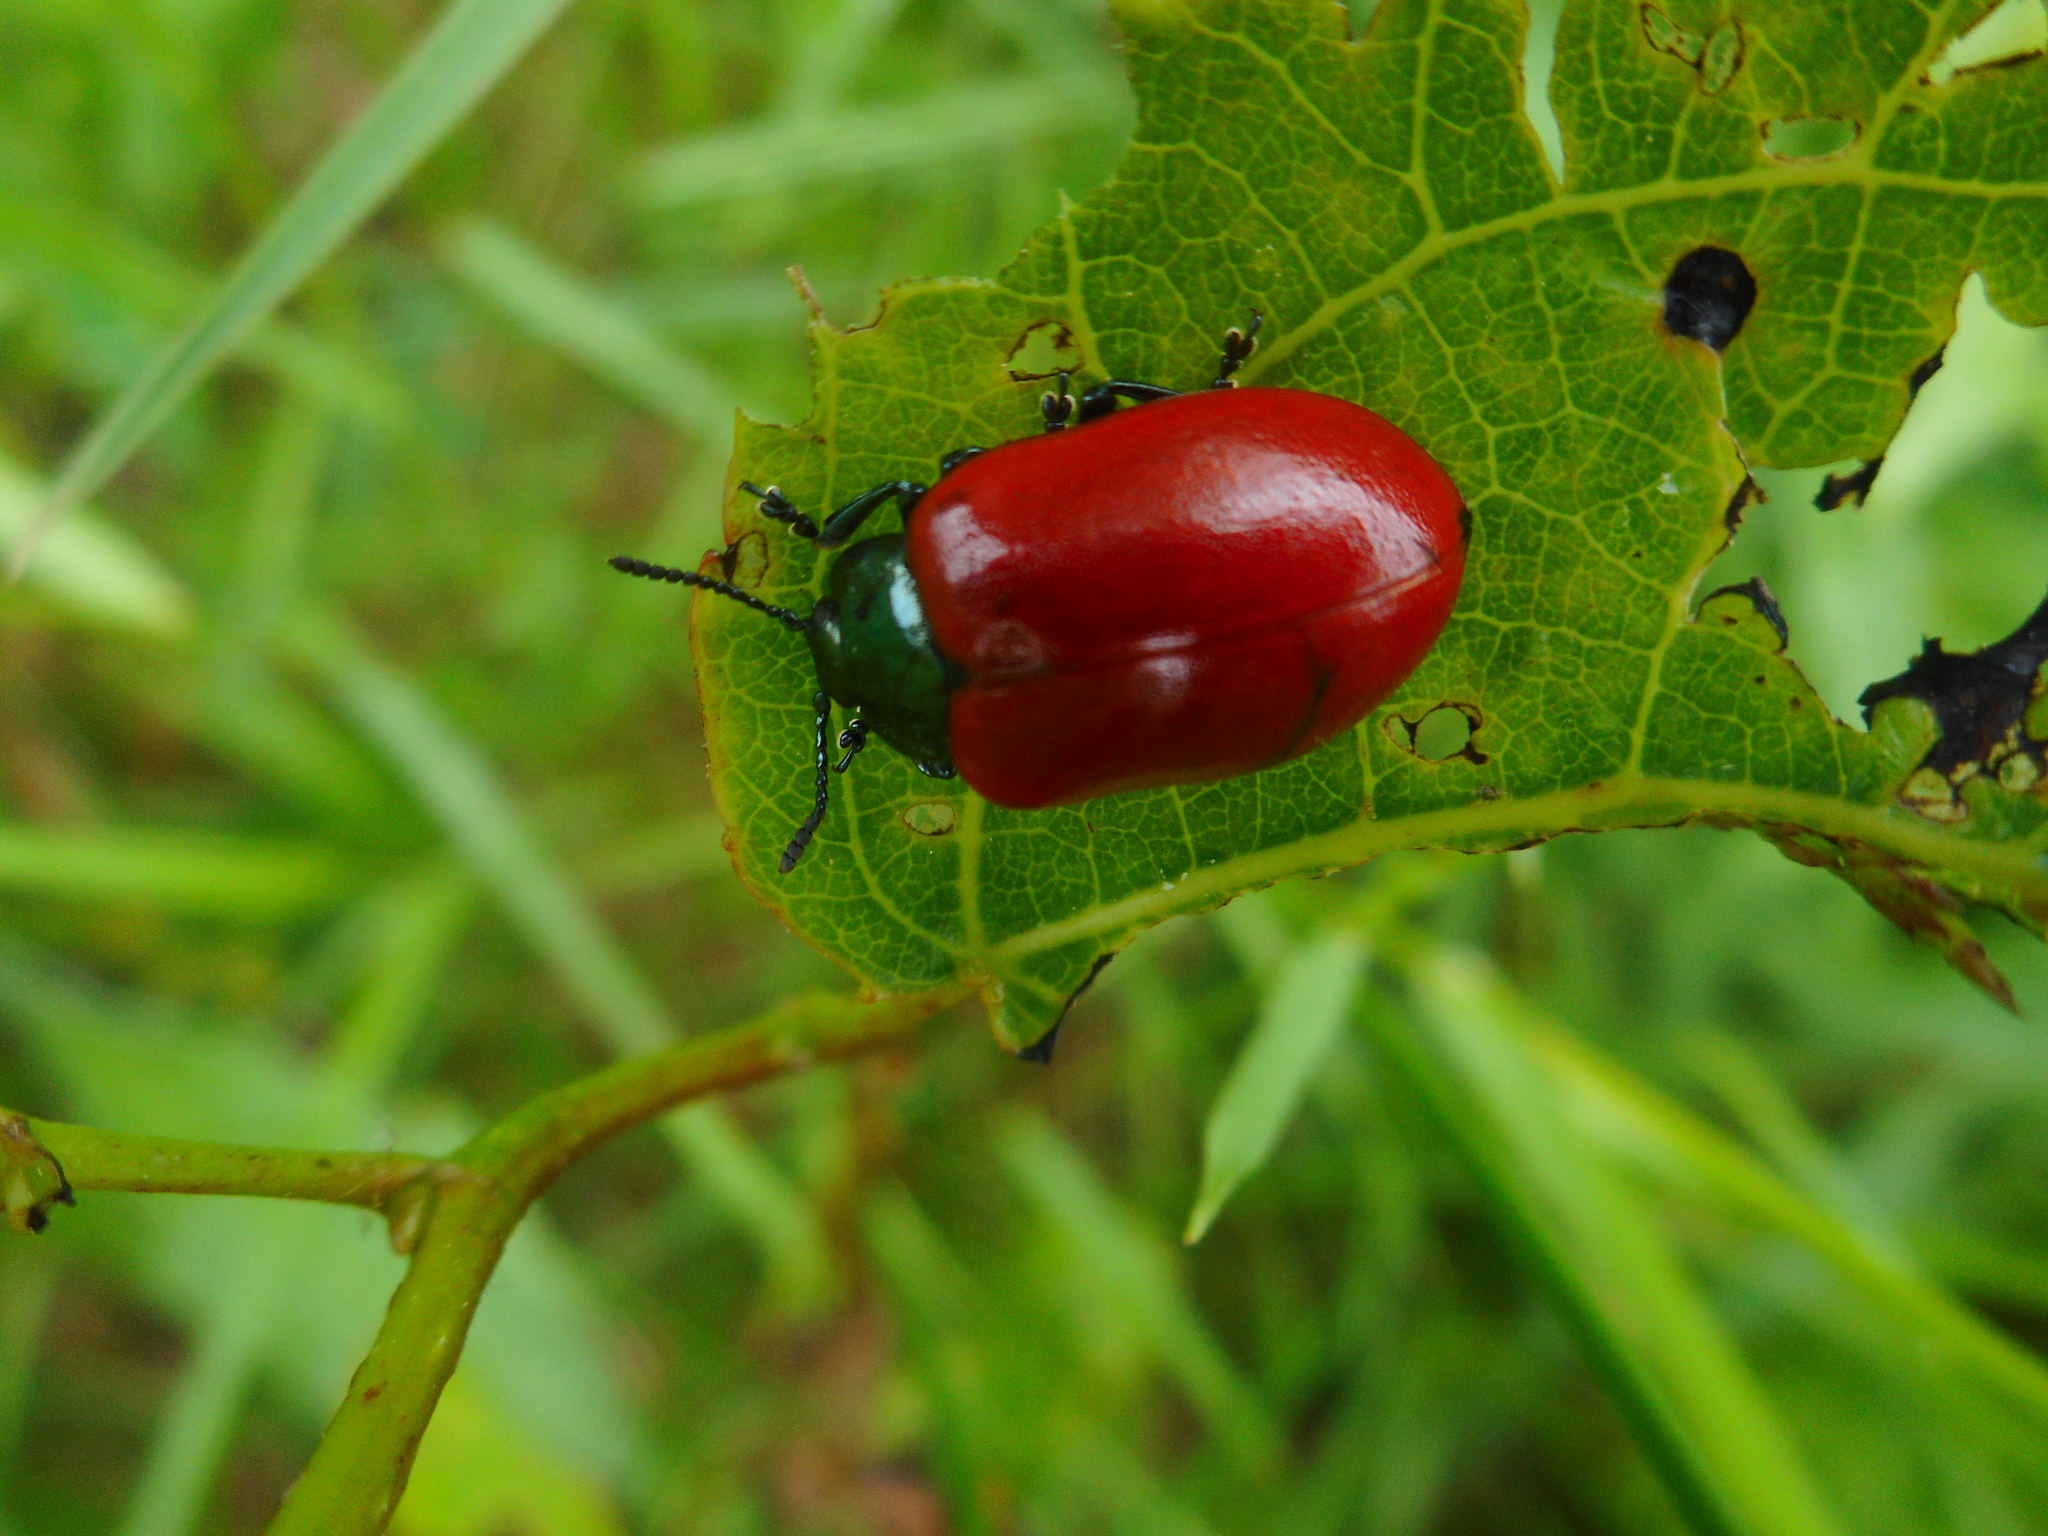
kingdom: Animalia
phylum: Arthropoda
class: Insecta
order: Coleoptera
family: Chrysomelidae
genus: Chrysomela
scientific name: Chrysomela populi
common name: Red poplar leaf beetle
